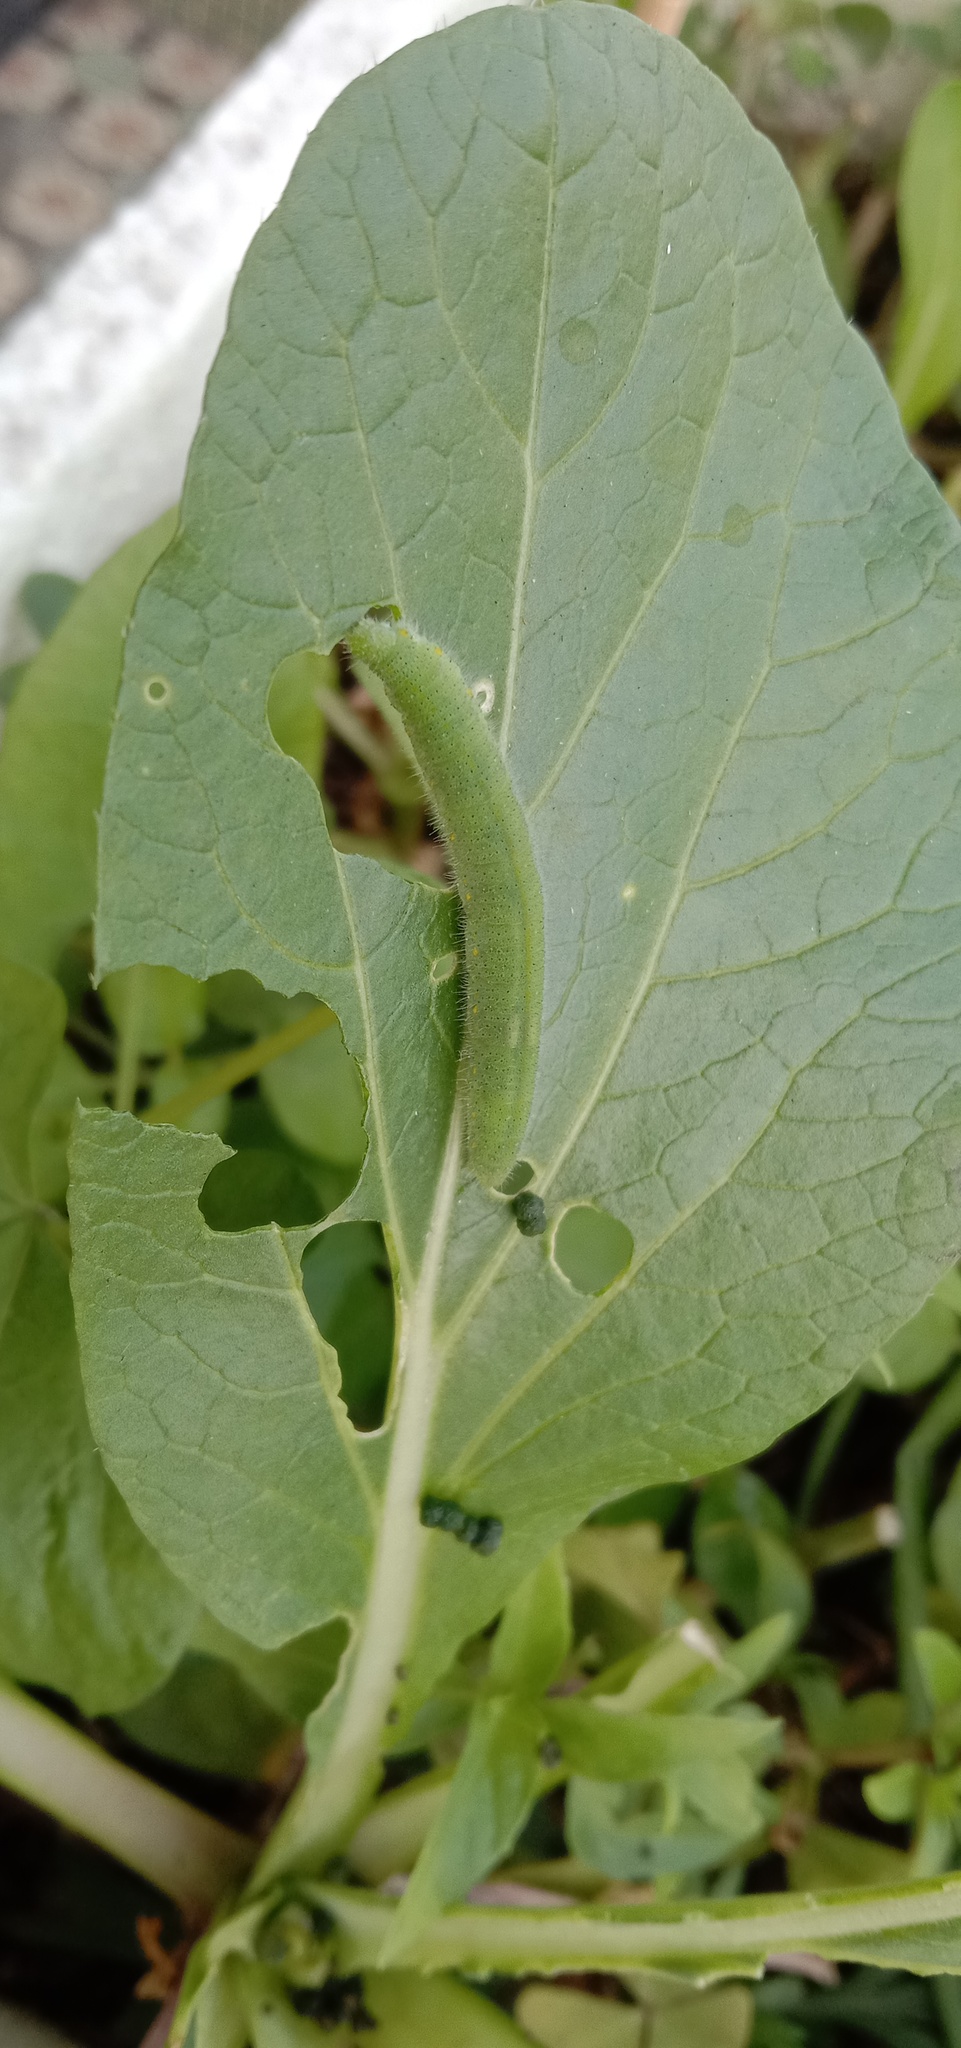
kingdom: Animalia
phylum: Arthropoda
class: Insecta
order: Lepidoptera
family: Pieridae
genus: Pieris
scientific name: Pieris rapae
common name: Small white
